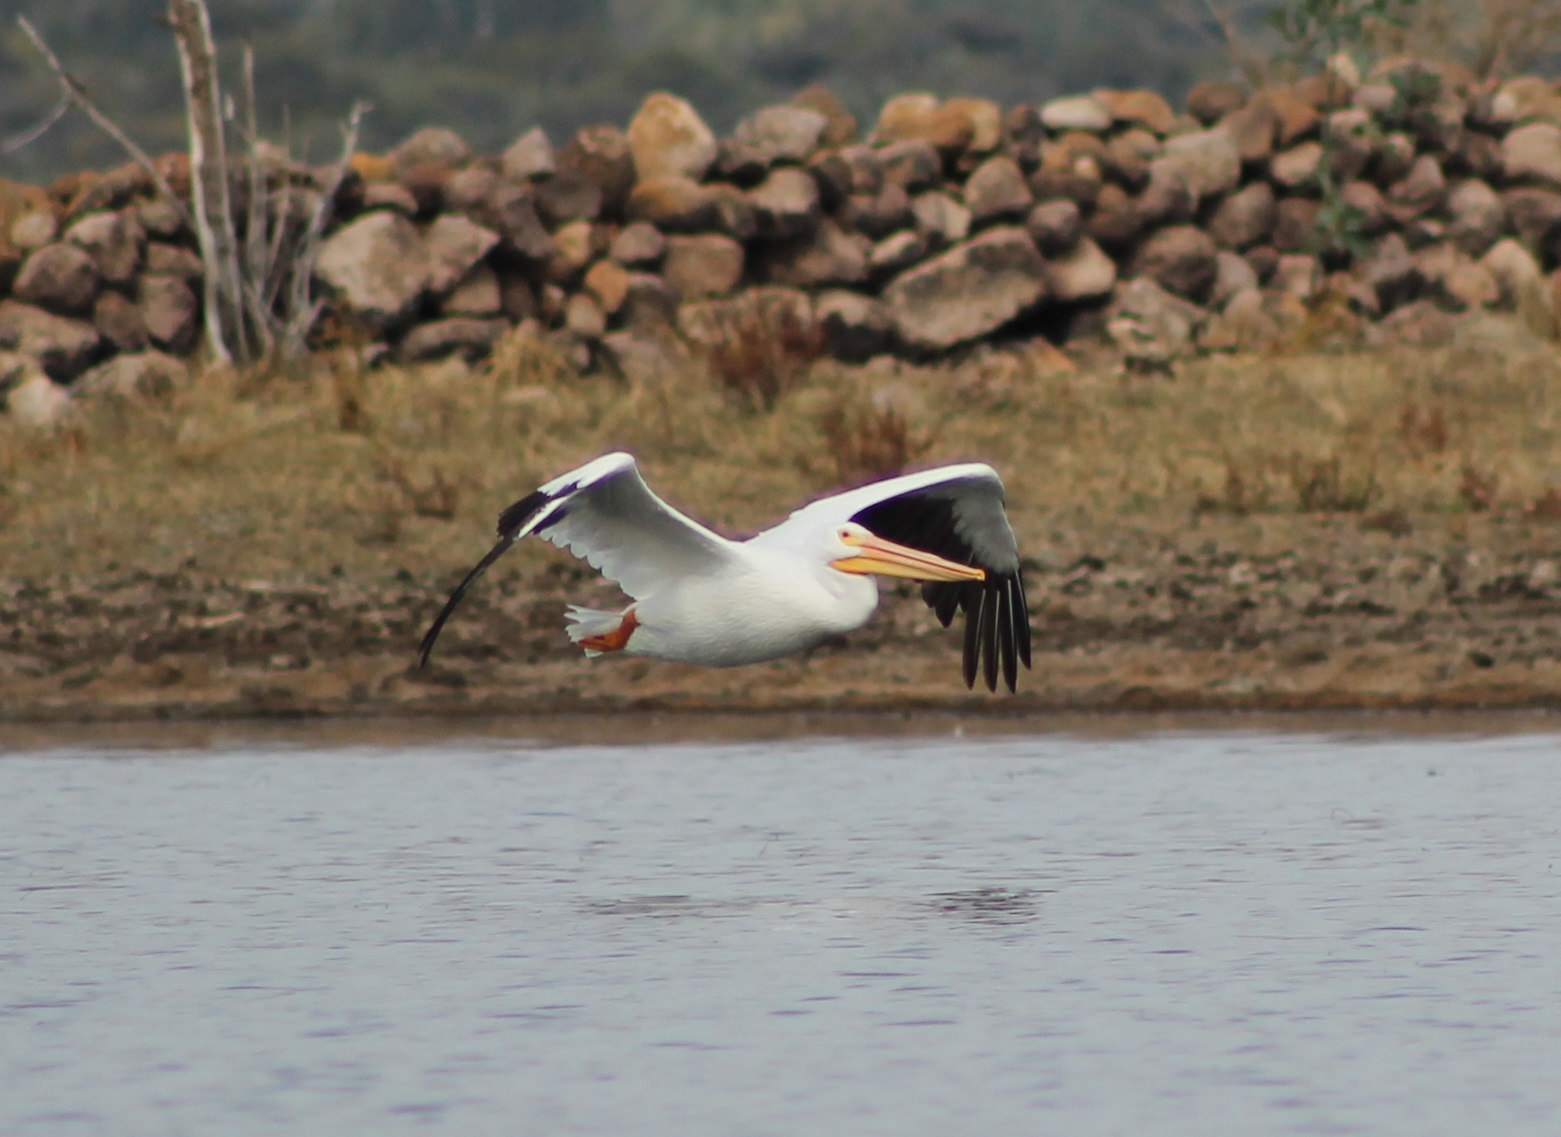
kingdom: Animalia
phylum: Chordata
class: Aves
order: Pelecaniformes
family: Pelecanidae
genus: Pelecanus
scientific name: Pelecanus erythrorhynchos
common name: American white pelican
